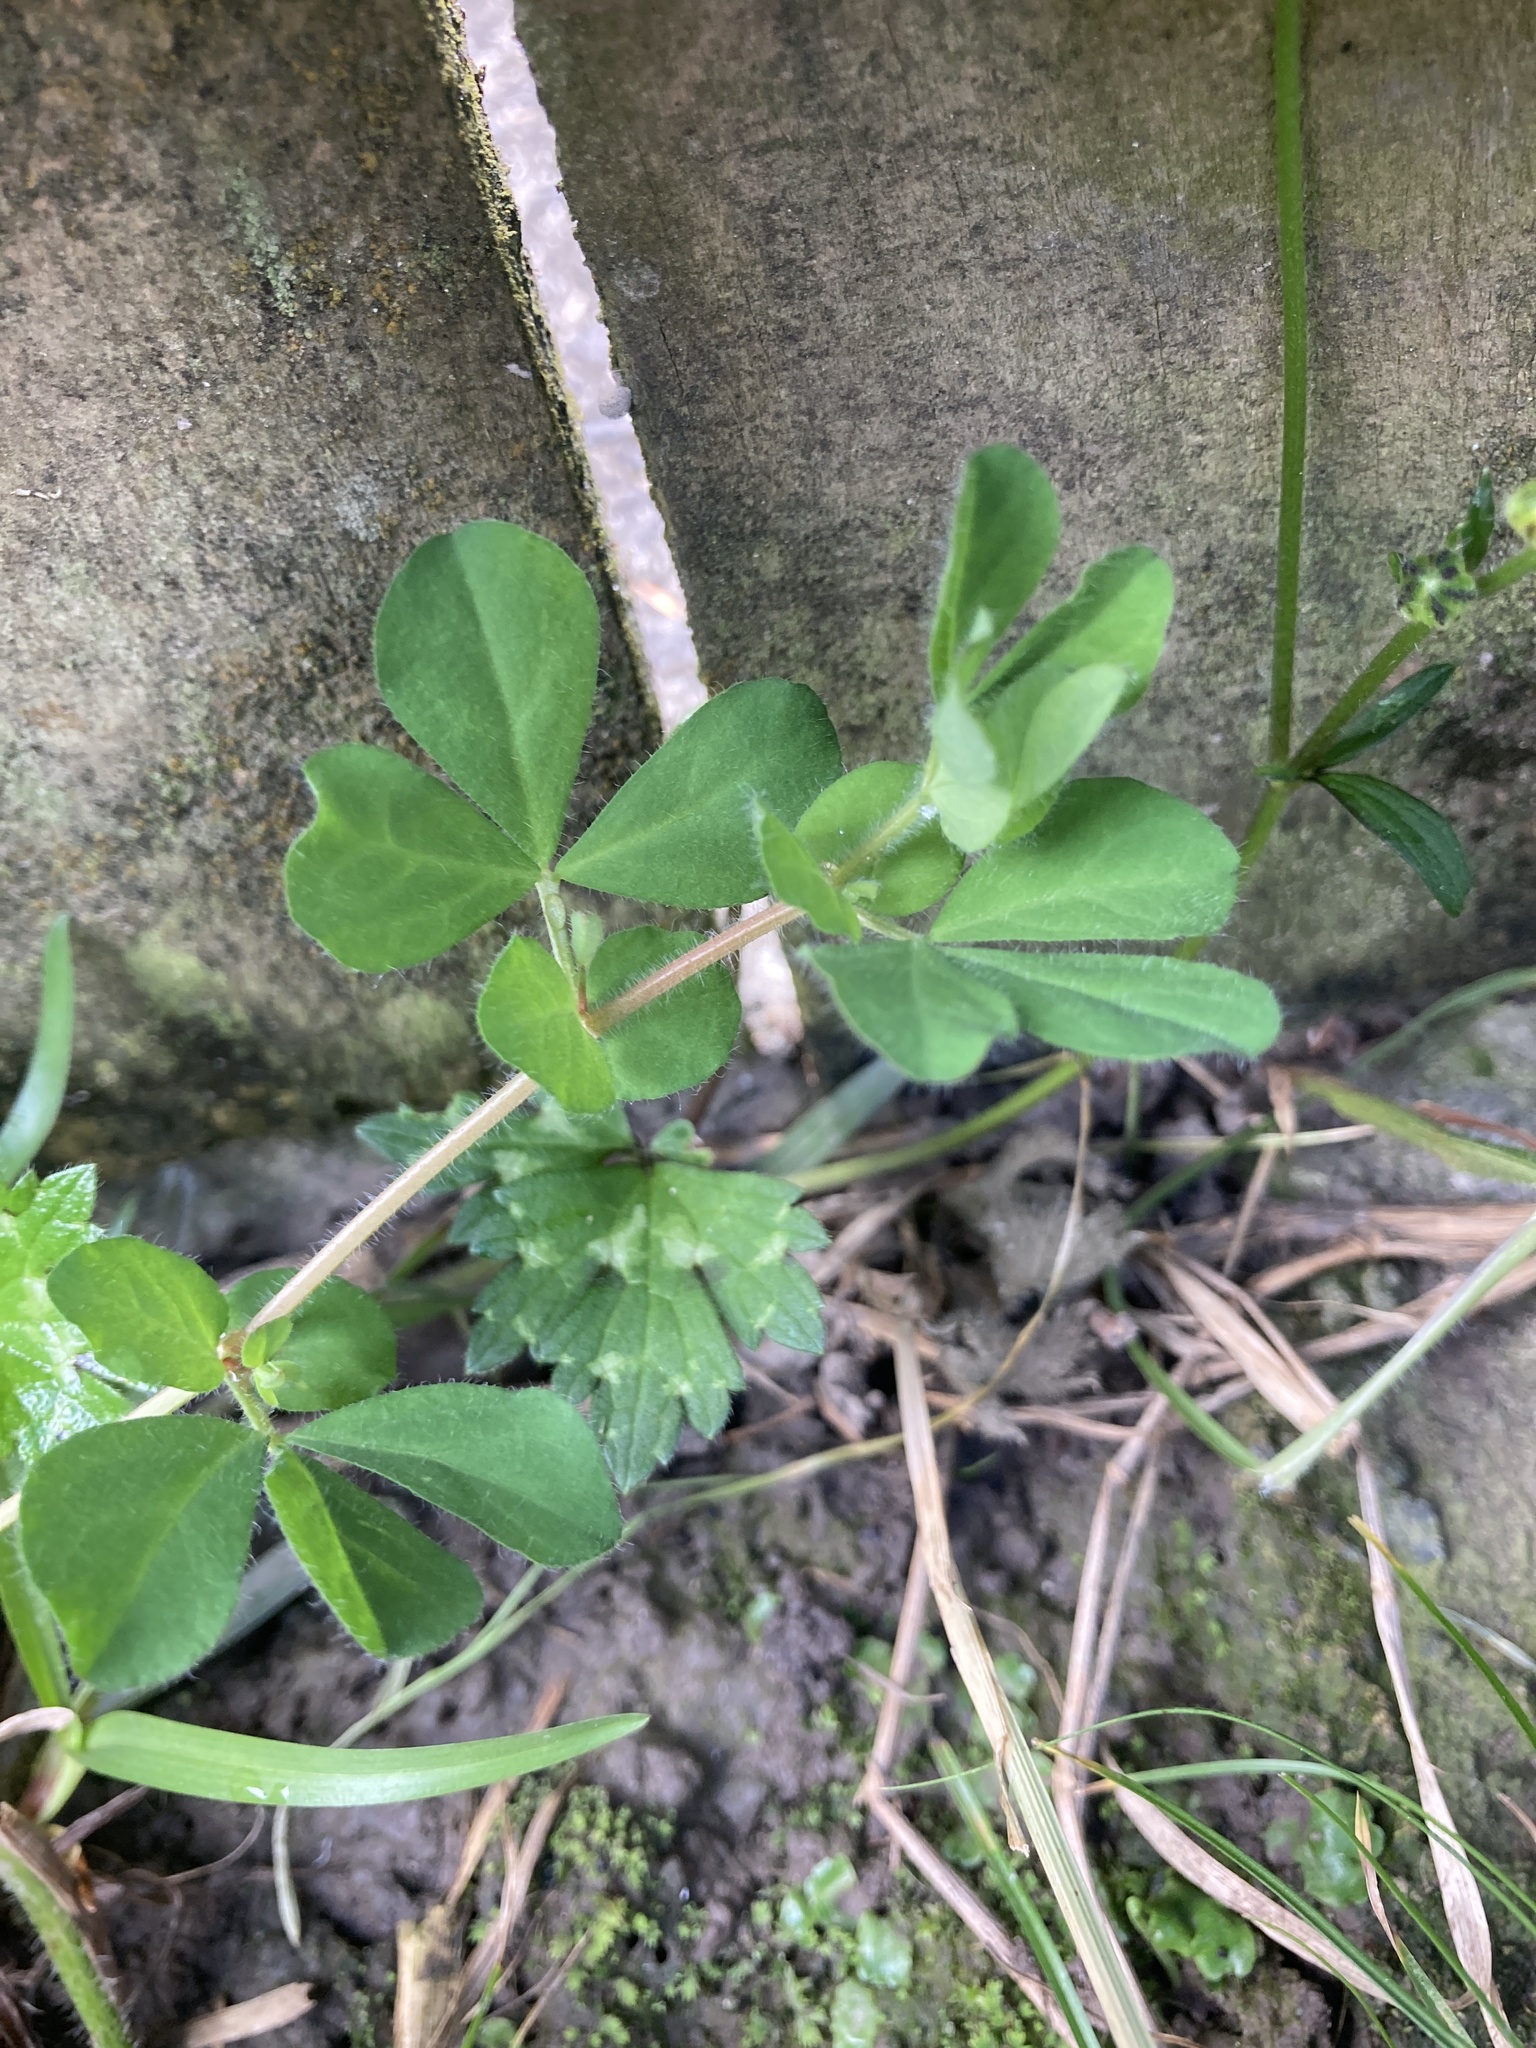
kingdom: Plantae
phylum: Tracheophyta
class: Magnoliopsida
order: Fabales
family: Fabaceae
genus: Lotus
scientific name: Lotus pedunculatus
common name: Greater birdsfoot-trefoil
